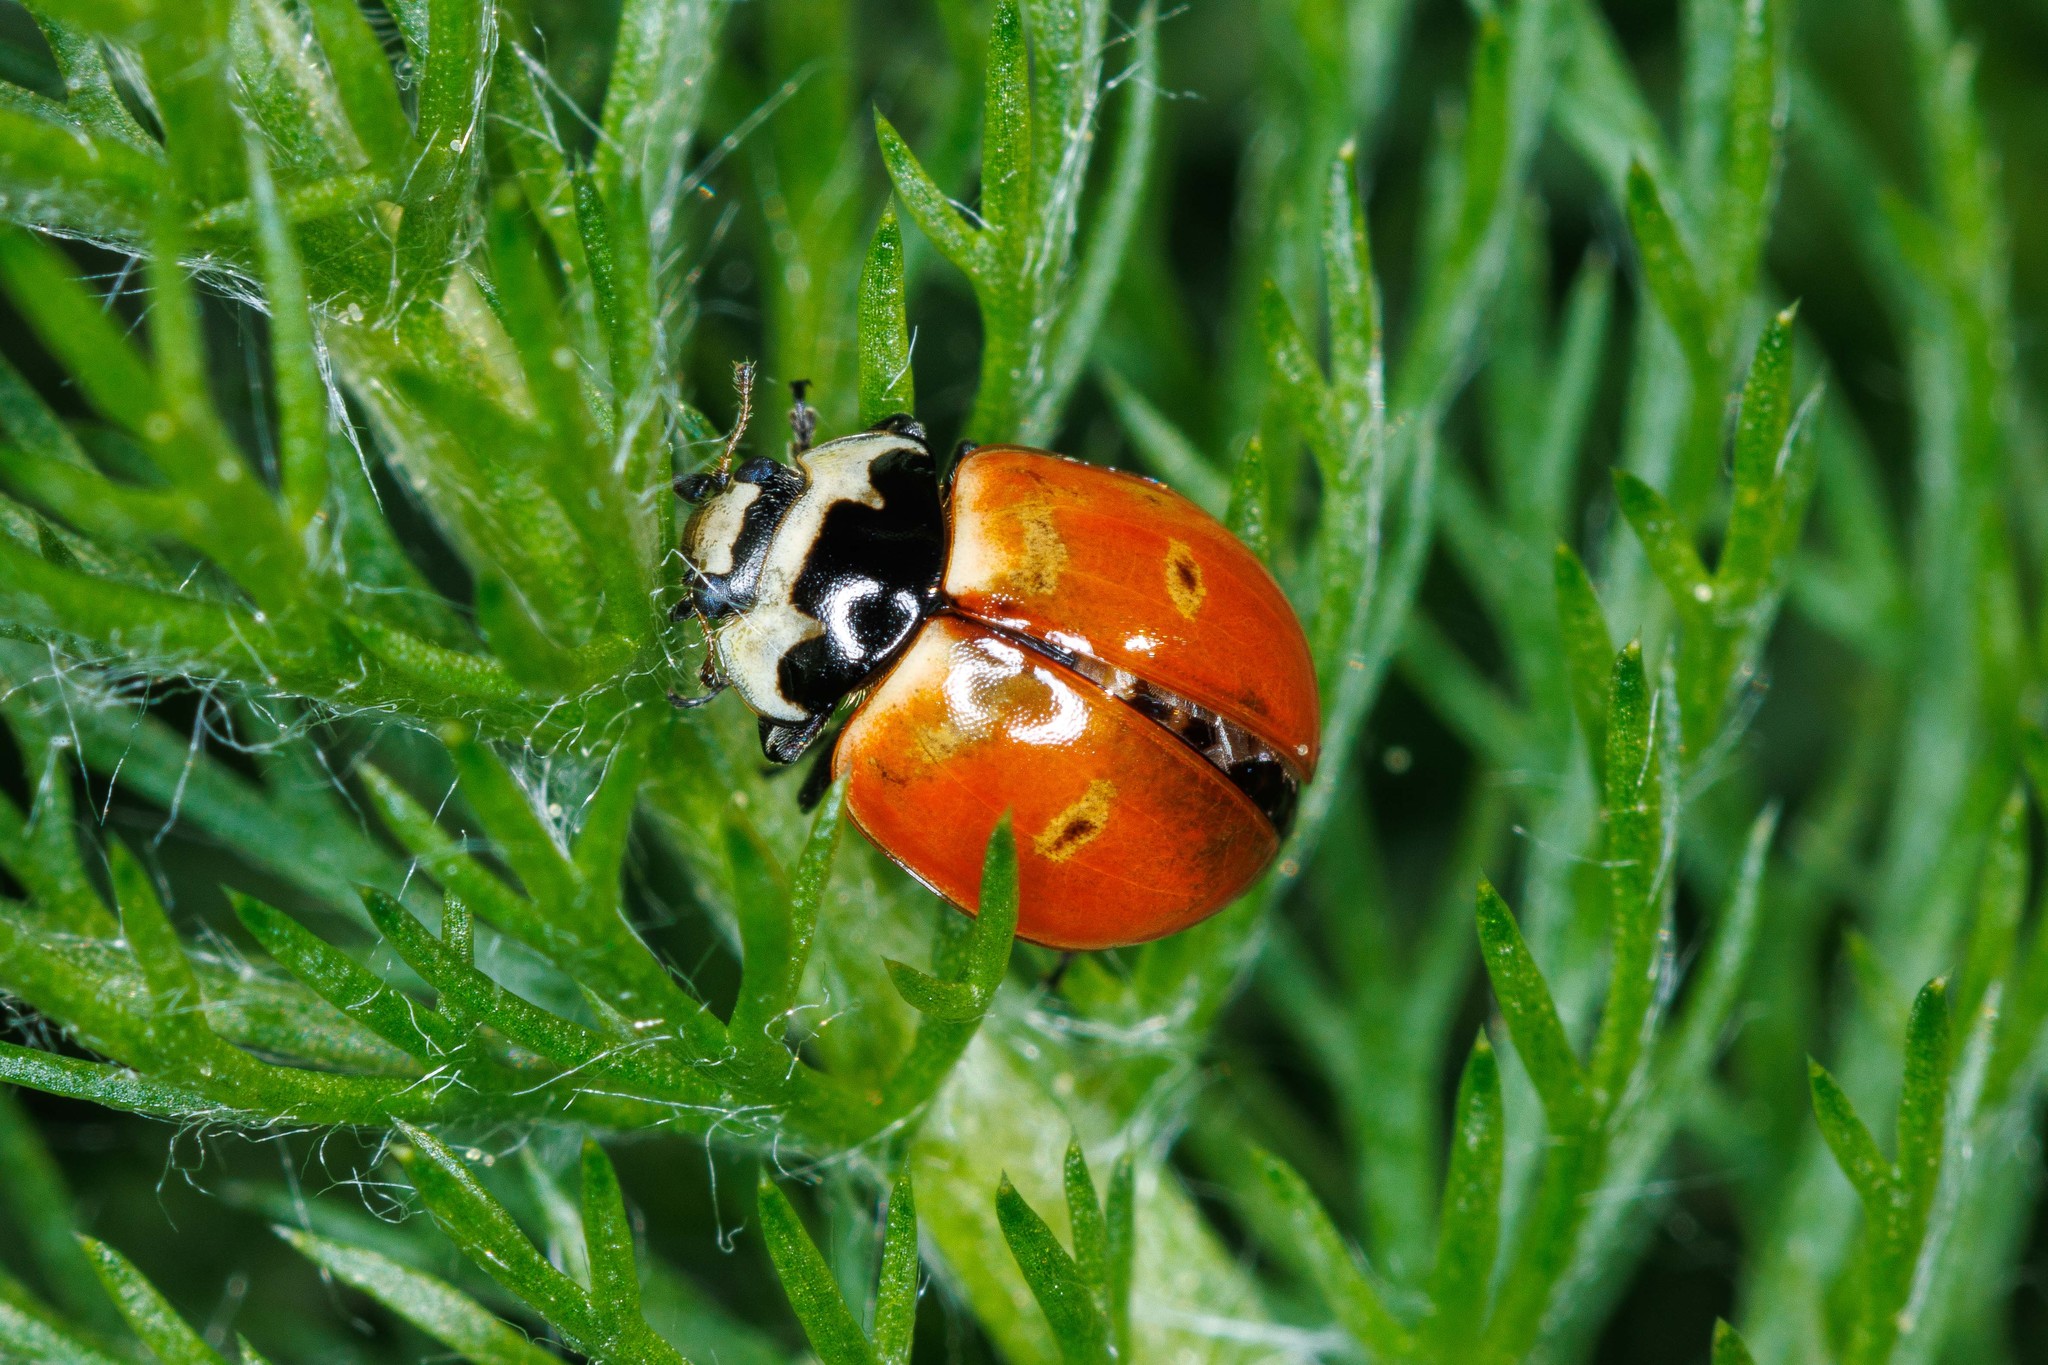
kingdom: Animalia
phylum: Arthropoda
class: Insecta
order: Coleoptera
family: Coccinellidae
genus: Coccinella
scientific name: Coccinella trifasciata
